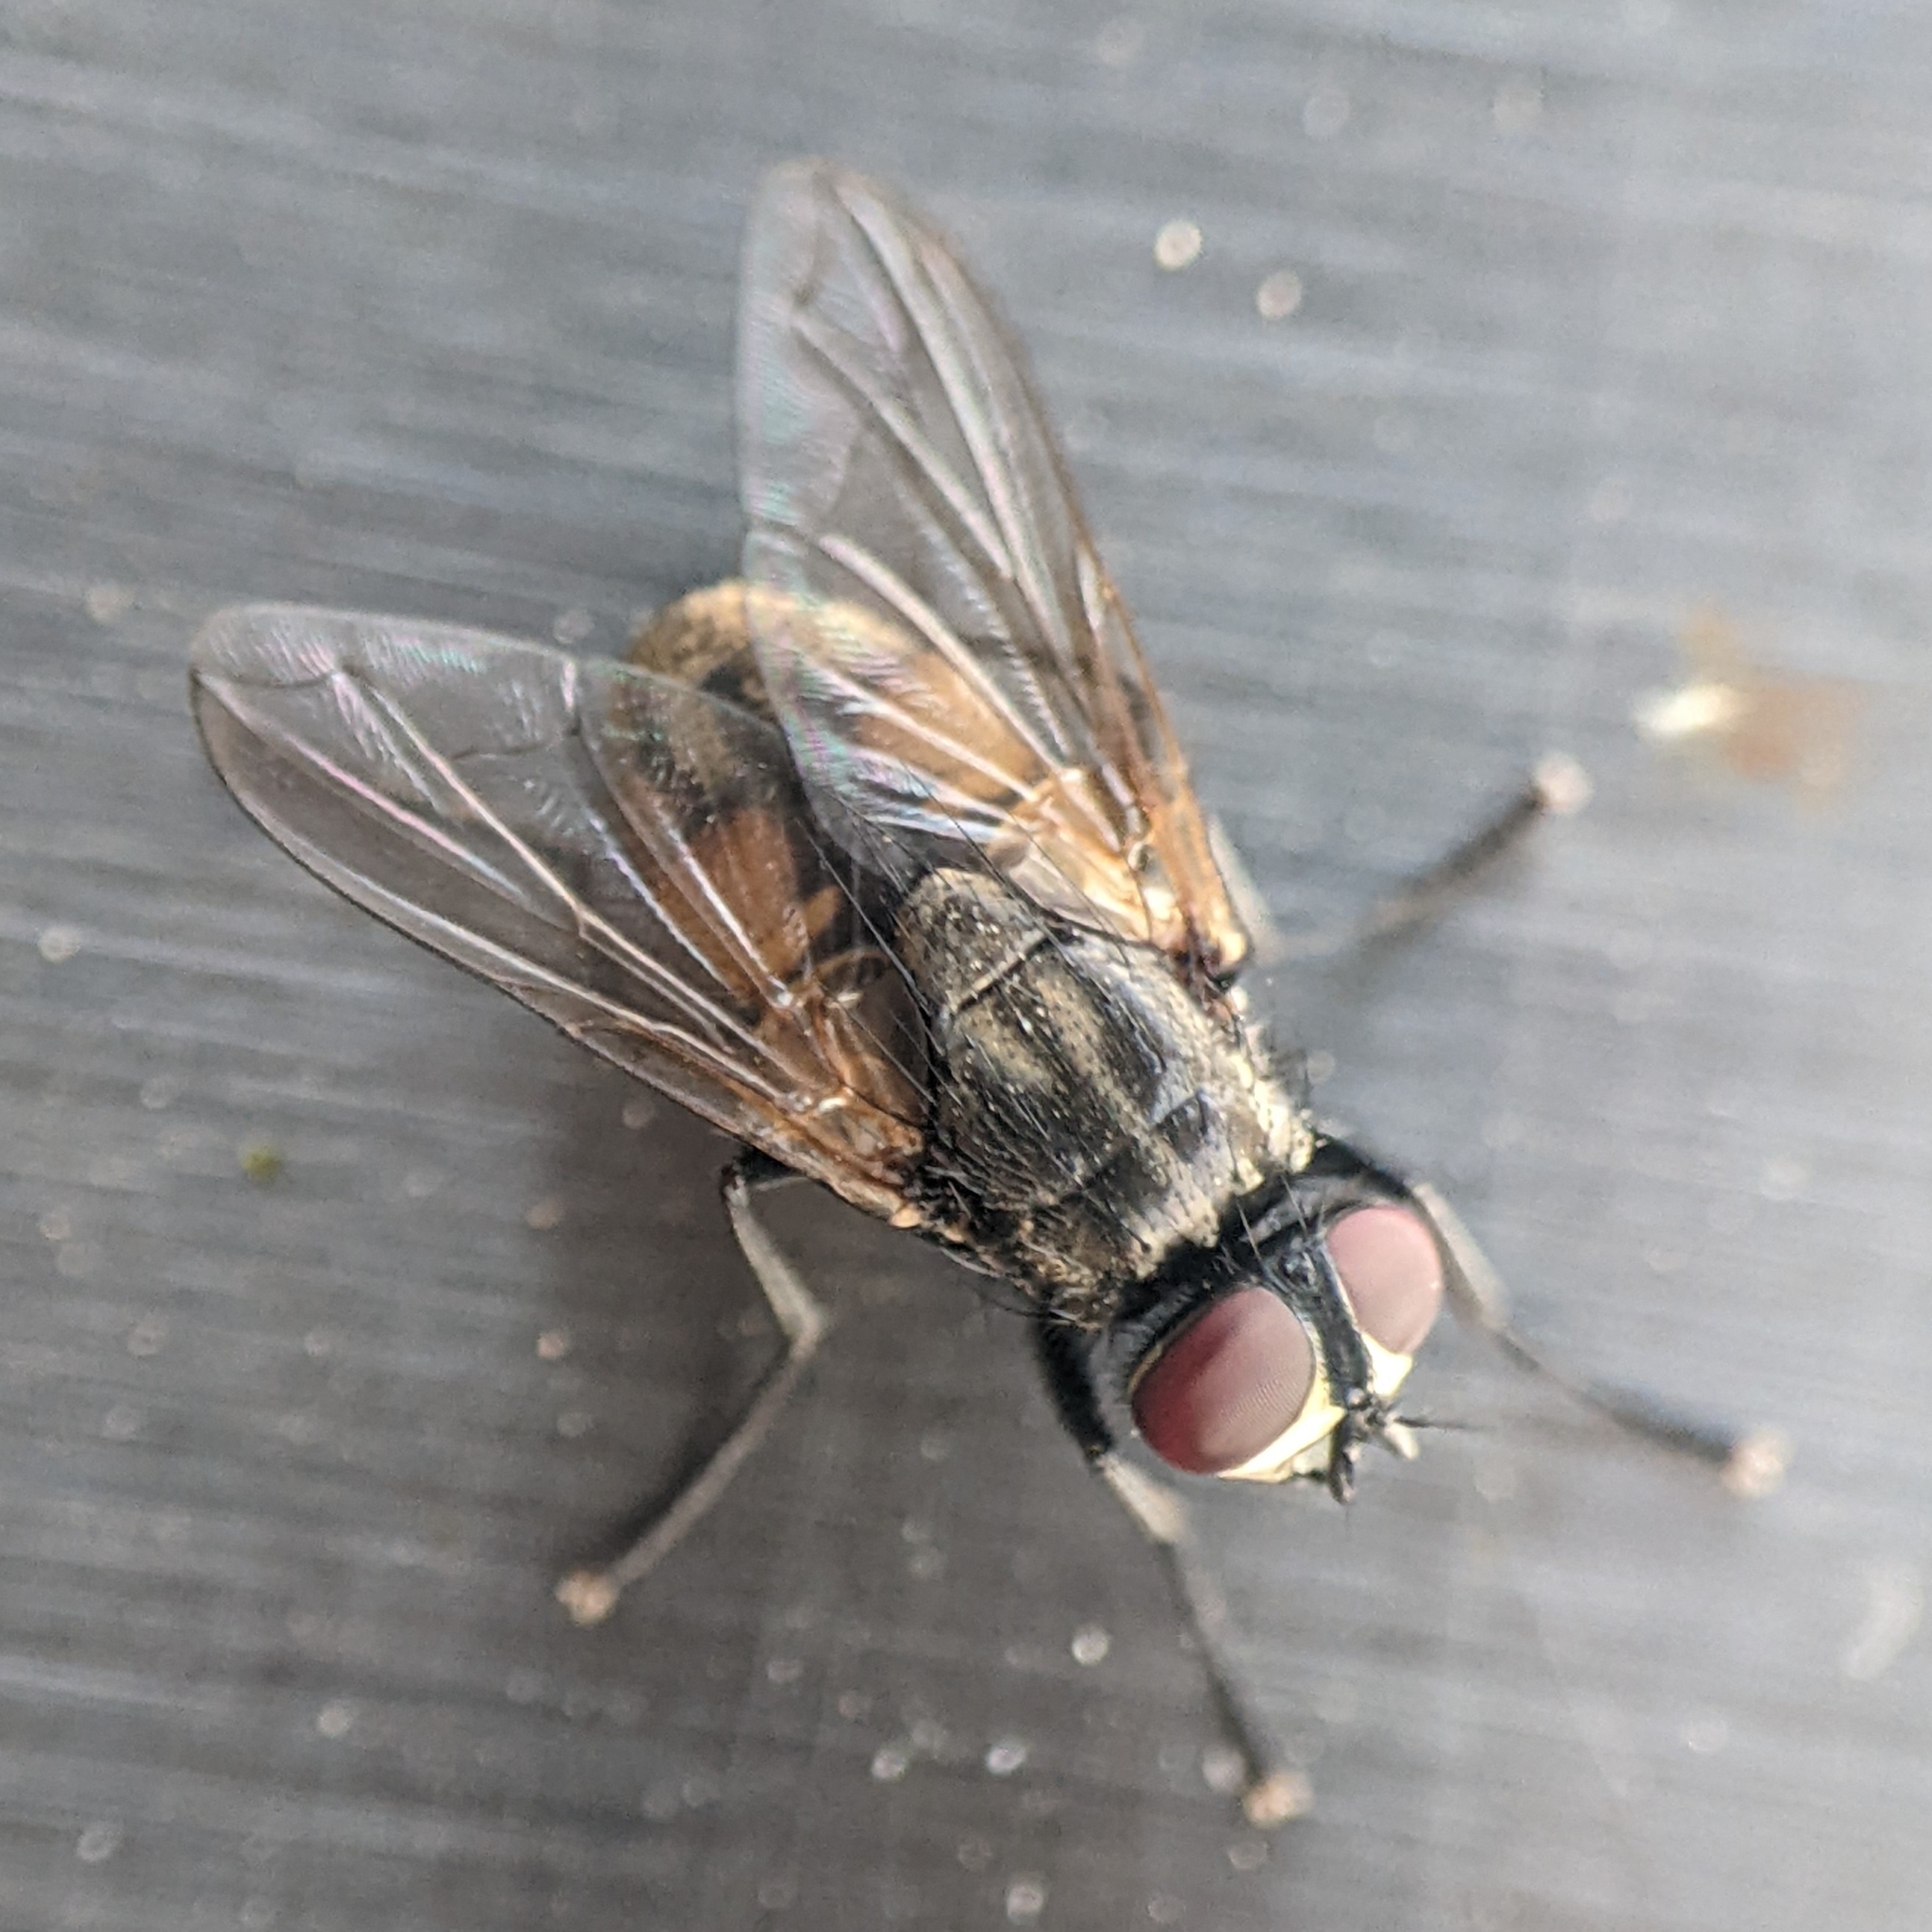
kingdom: Animalia
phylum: Arthropoda
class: Insecta
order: Diptera
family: Muscidae
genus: Musca
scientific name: Musca domestica
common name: House fly
